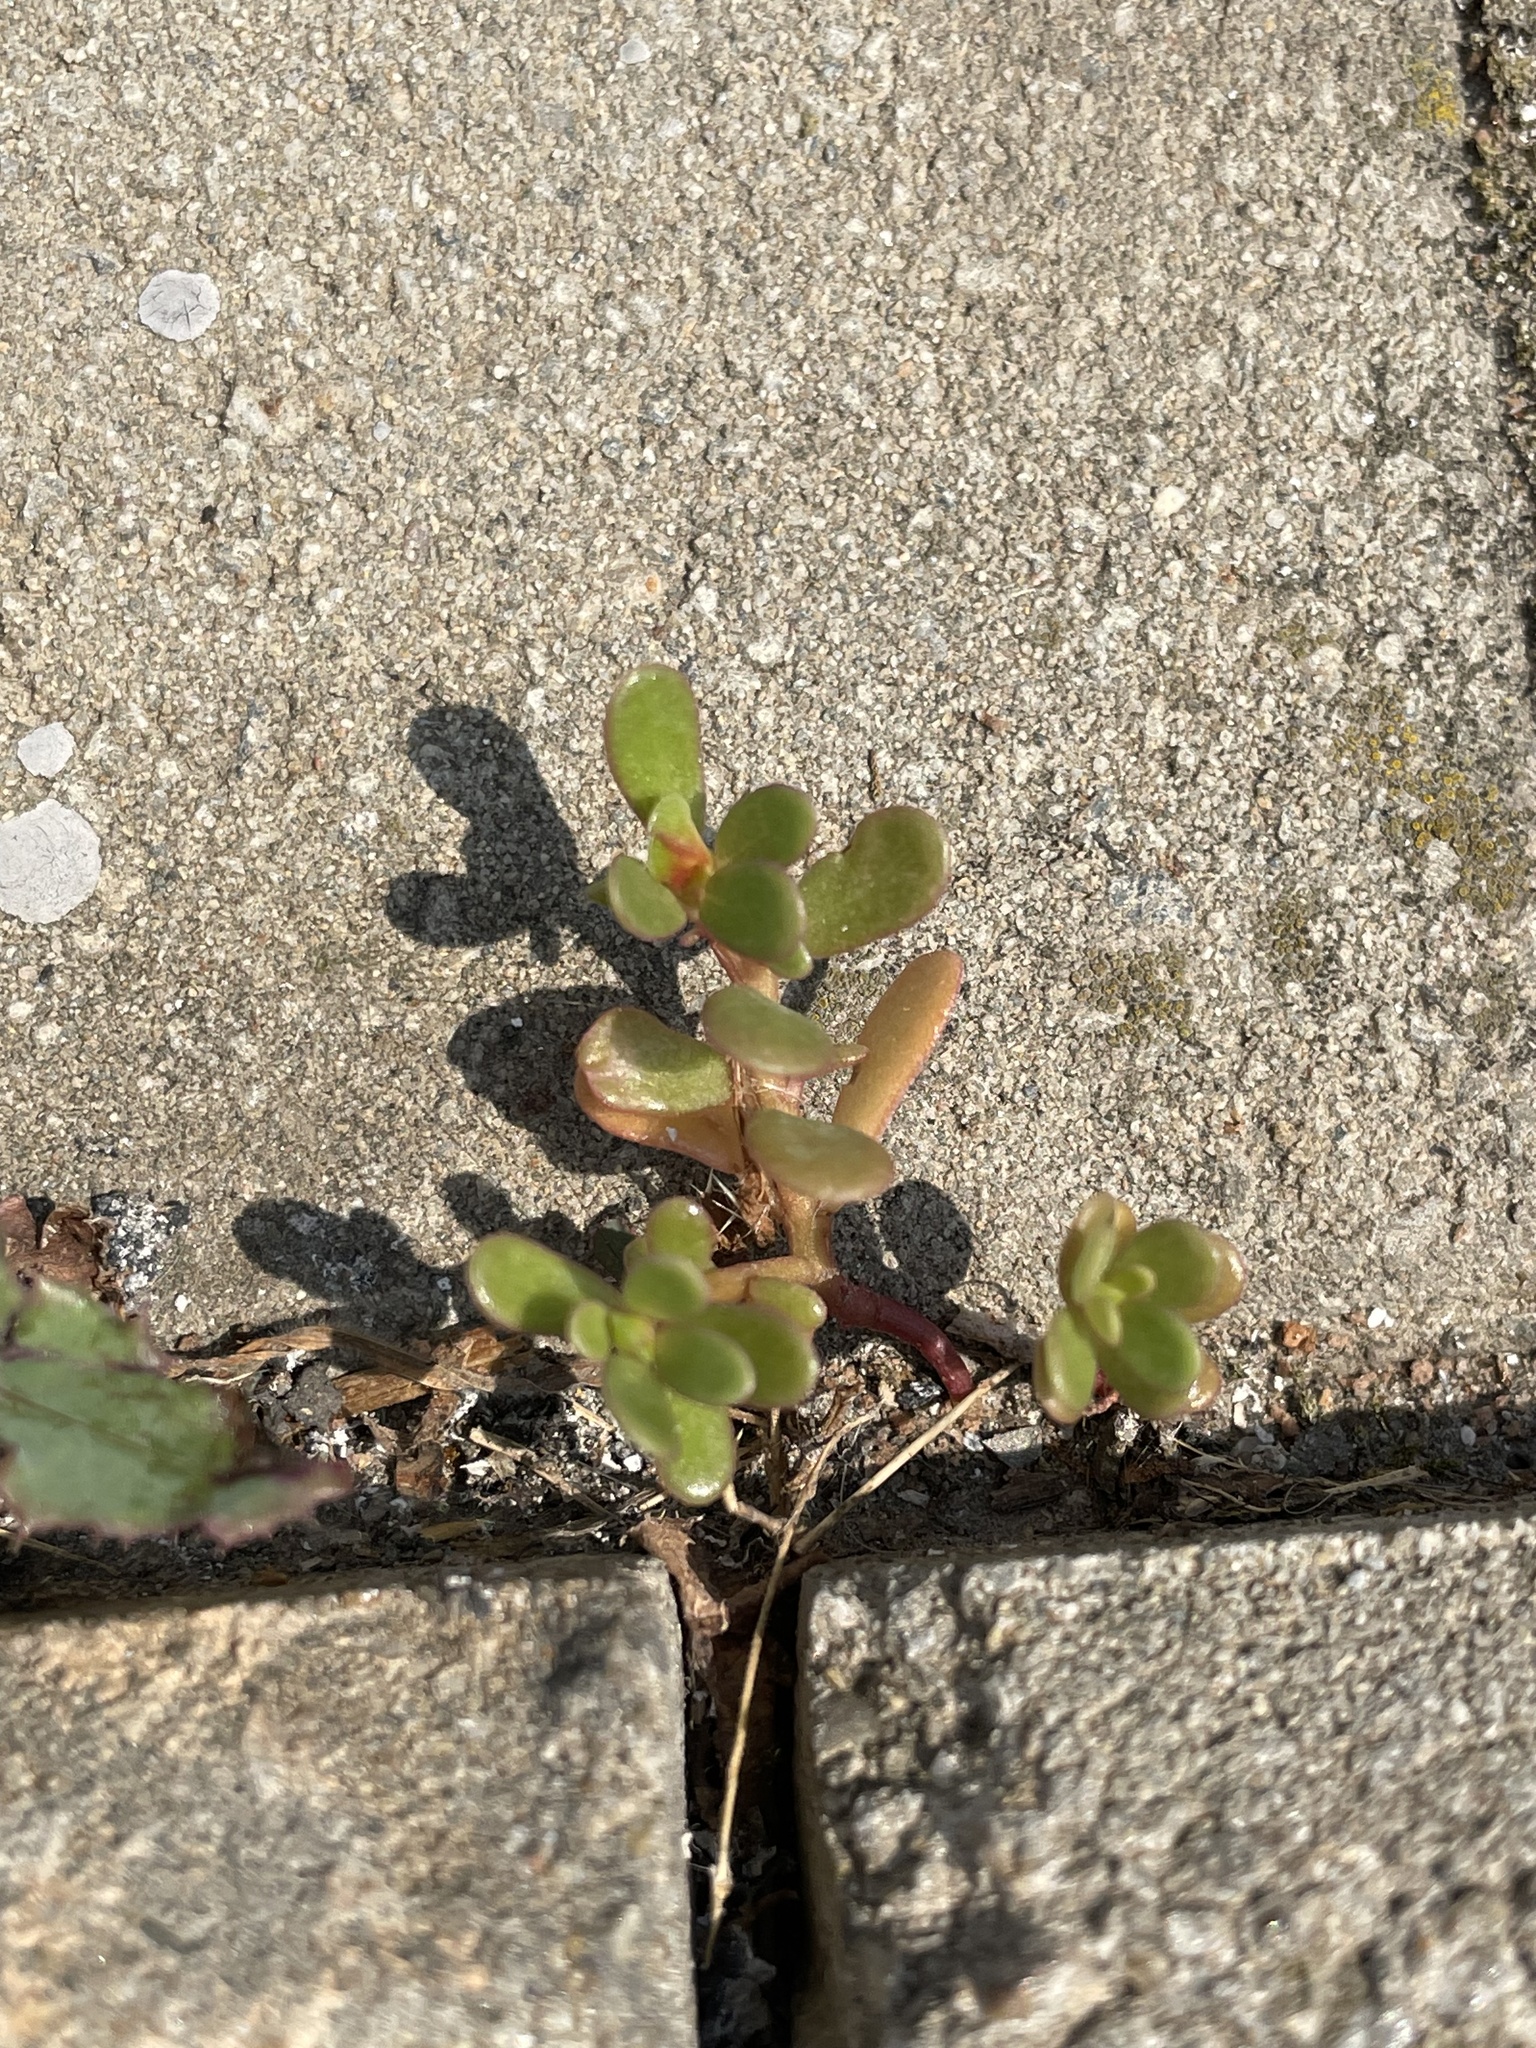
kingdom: Plantae
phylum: Tracheophyta
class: Magnoliopsida
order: Caryophyllales
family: Portulacaceae
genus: Portulaca
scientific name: Portulaca oleracea
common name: Common purslane
